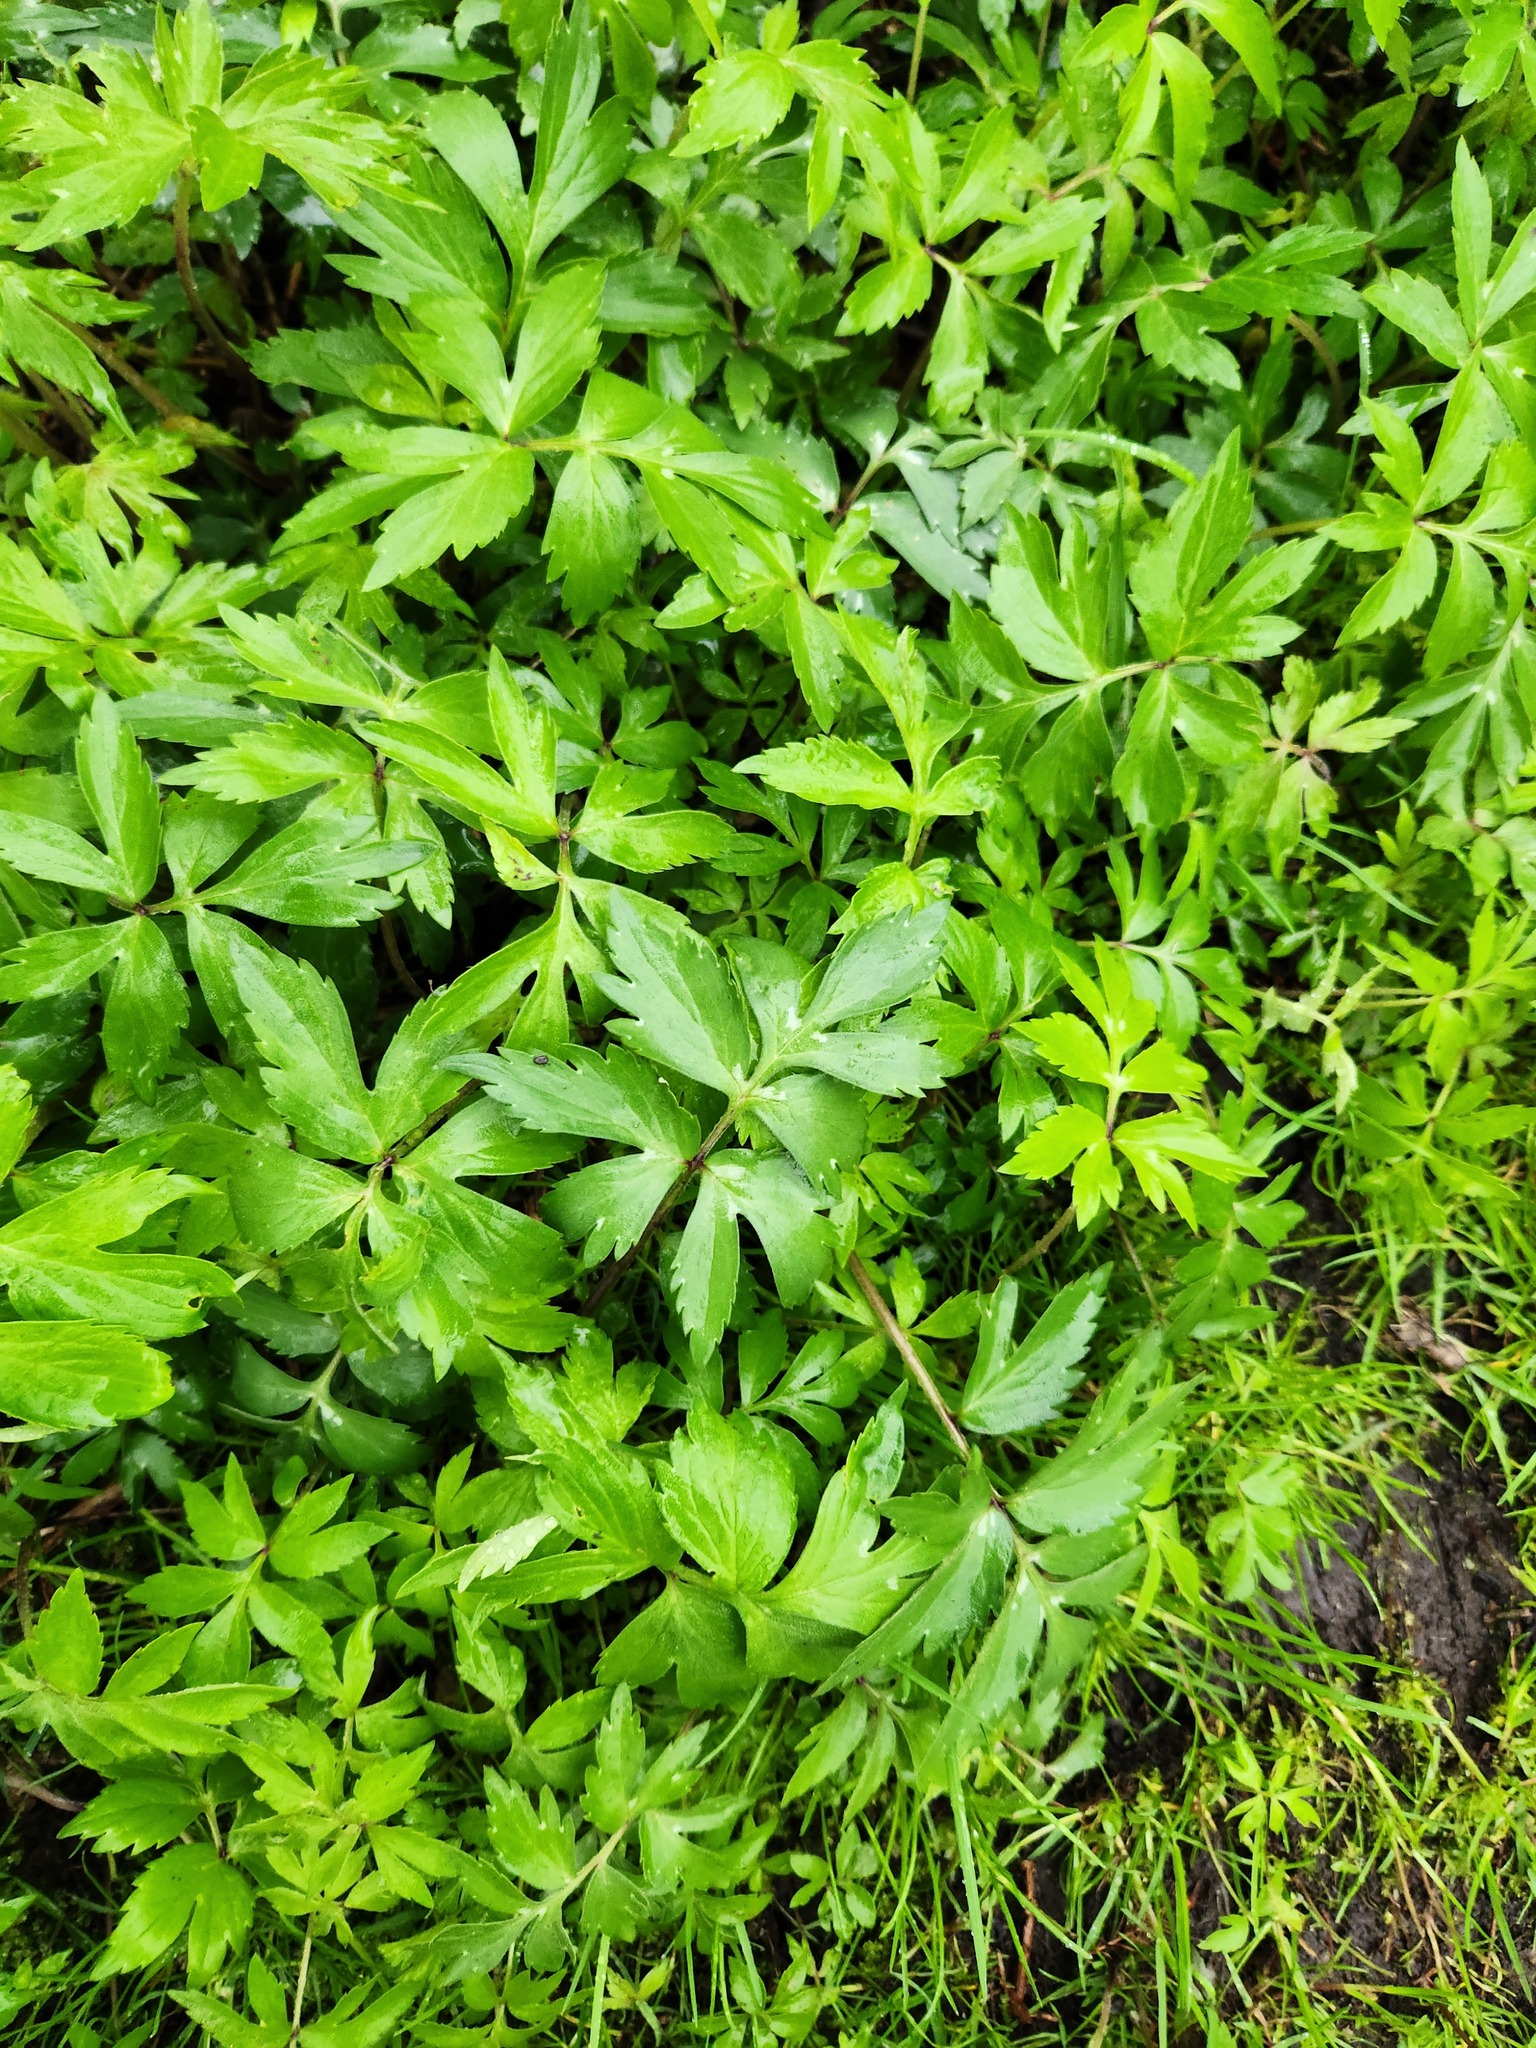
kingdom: Plantae
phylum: Tracheophyta
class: Magnoliopsida
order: Vitales
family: Vitaceae
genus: Parthenocissus
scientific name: Parthenocissus quinquefolia
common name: Virginia-creeper
